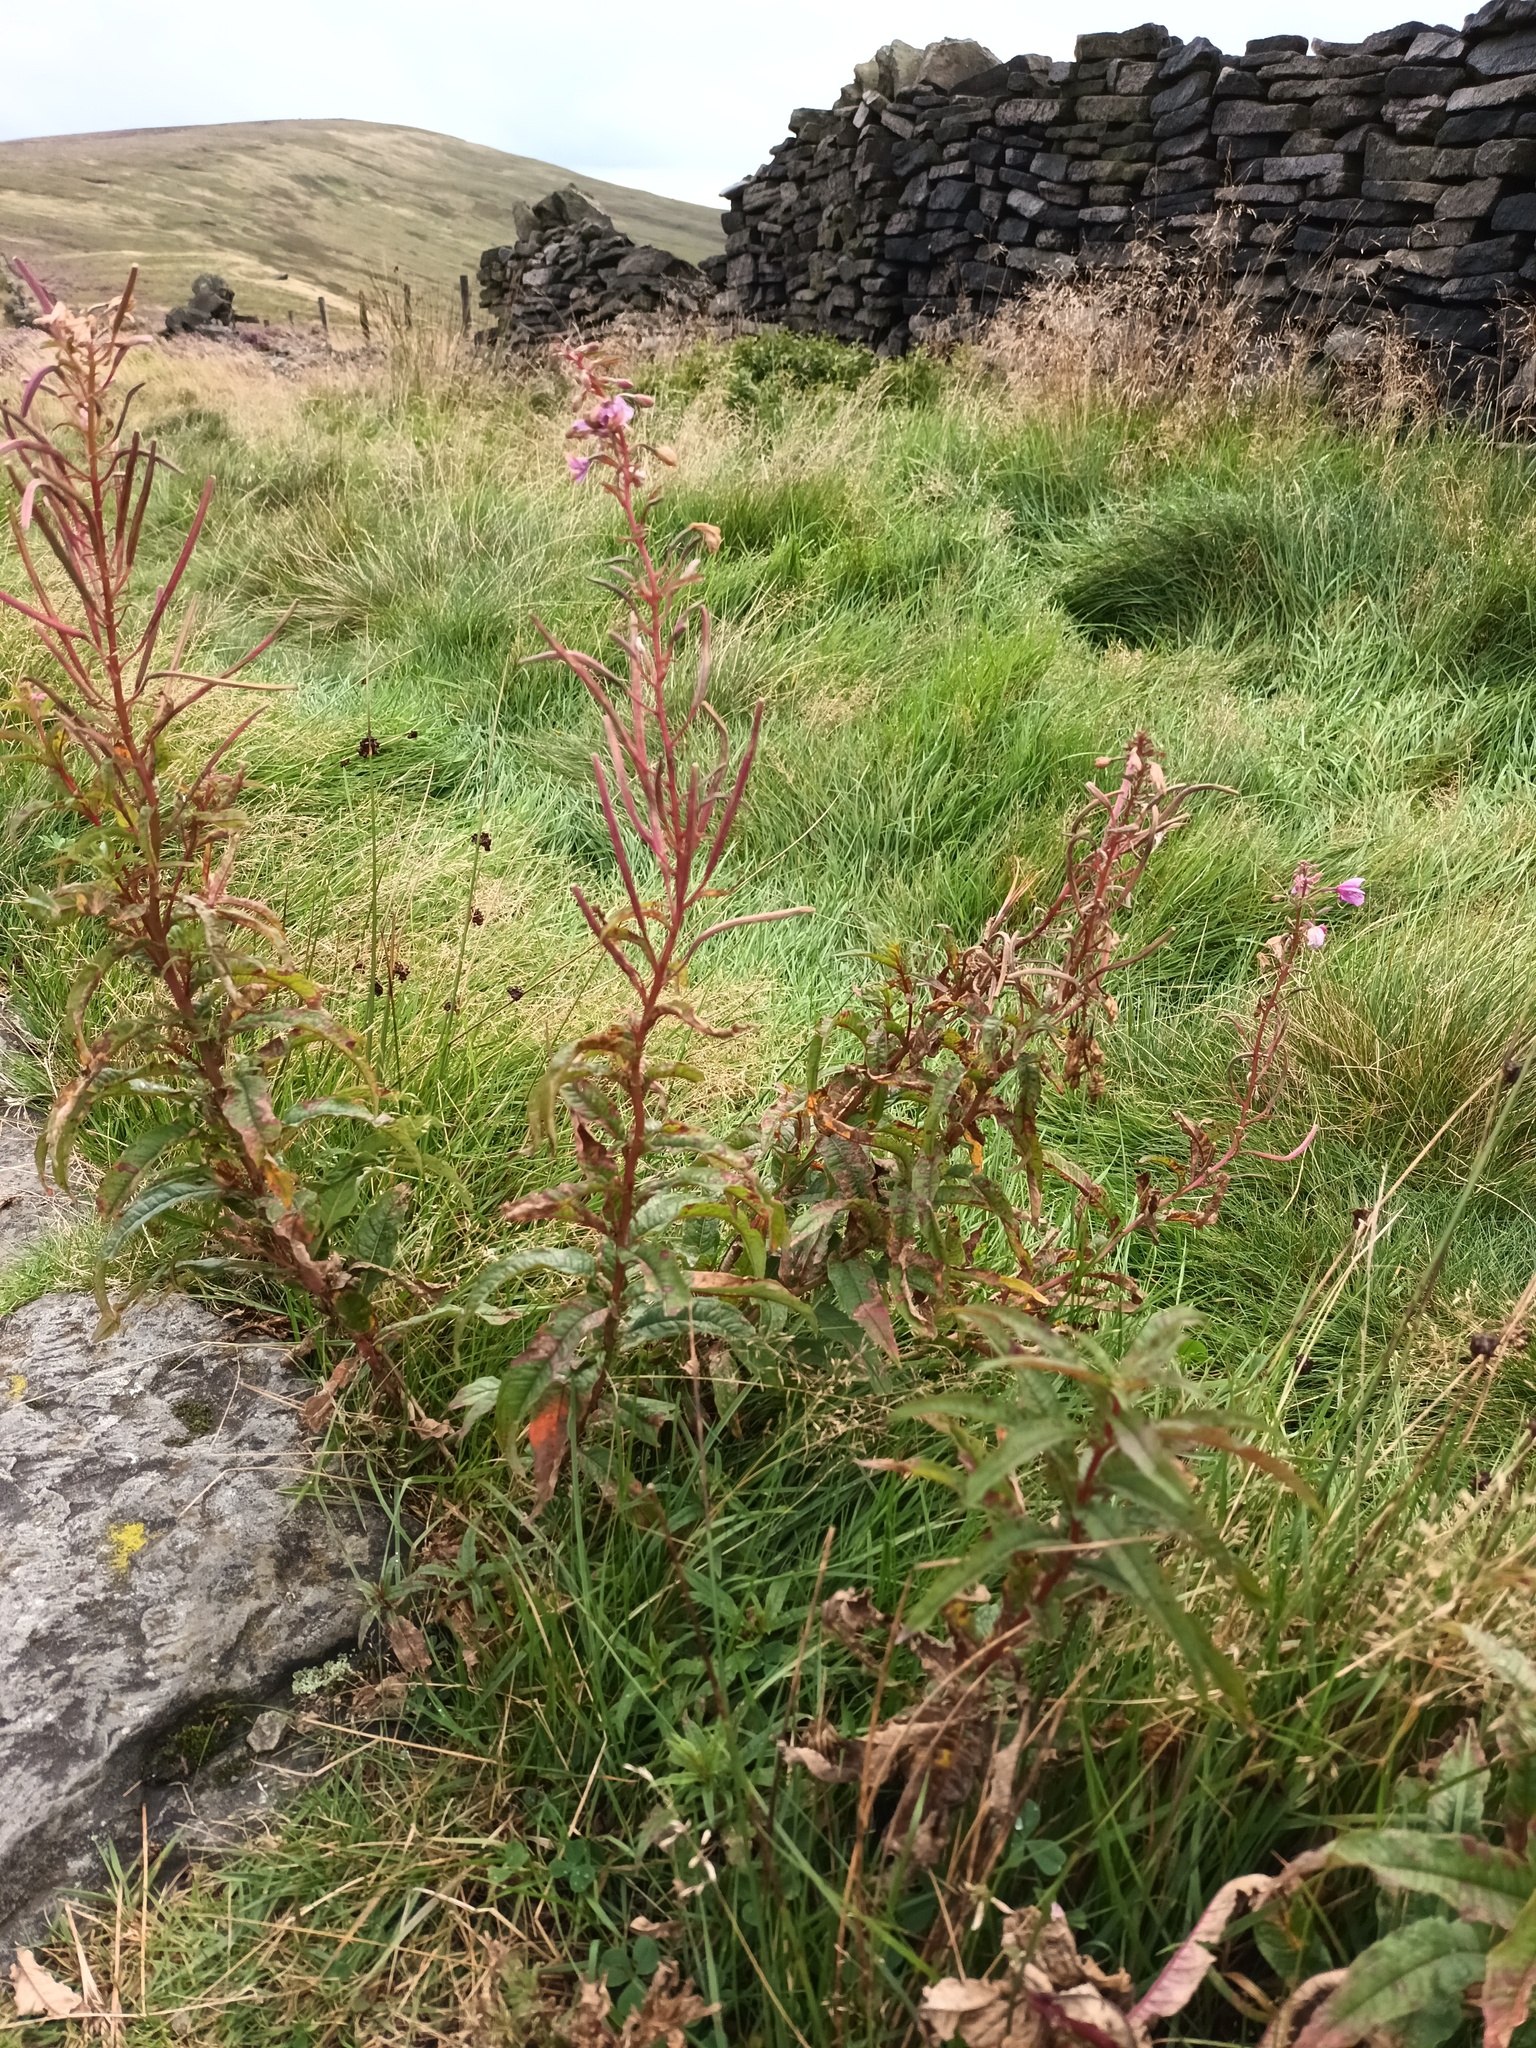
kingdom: Plantae
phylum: Tracheophyta
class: Magnoliopsida
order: Myrtales
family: Onagraceae
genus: Chamaenerion
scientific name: Chamaenerion angustifolium
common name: Fireweed
